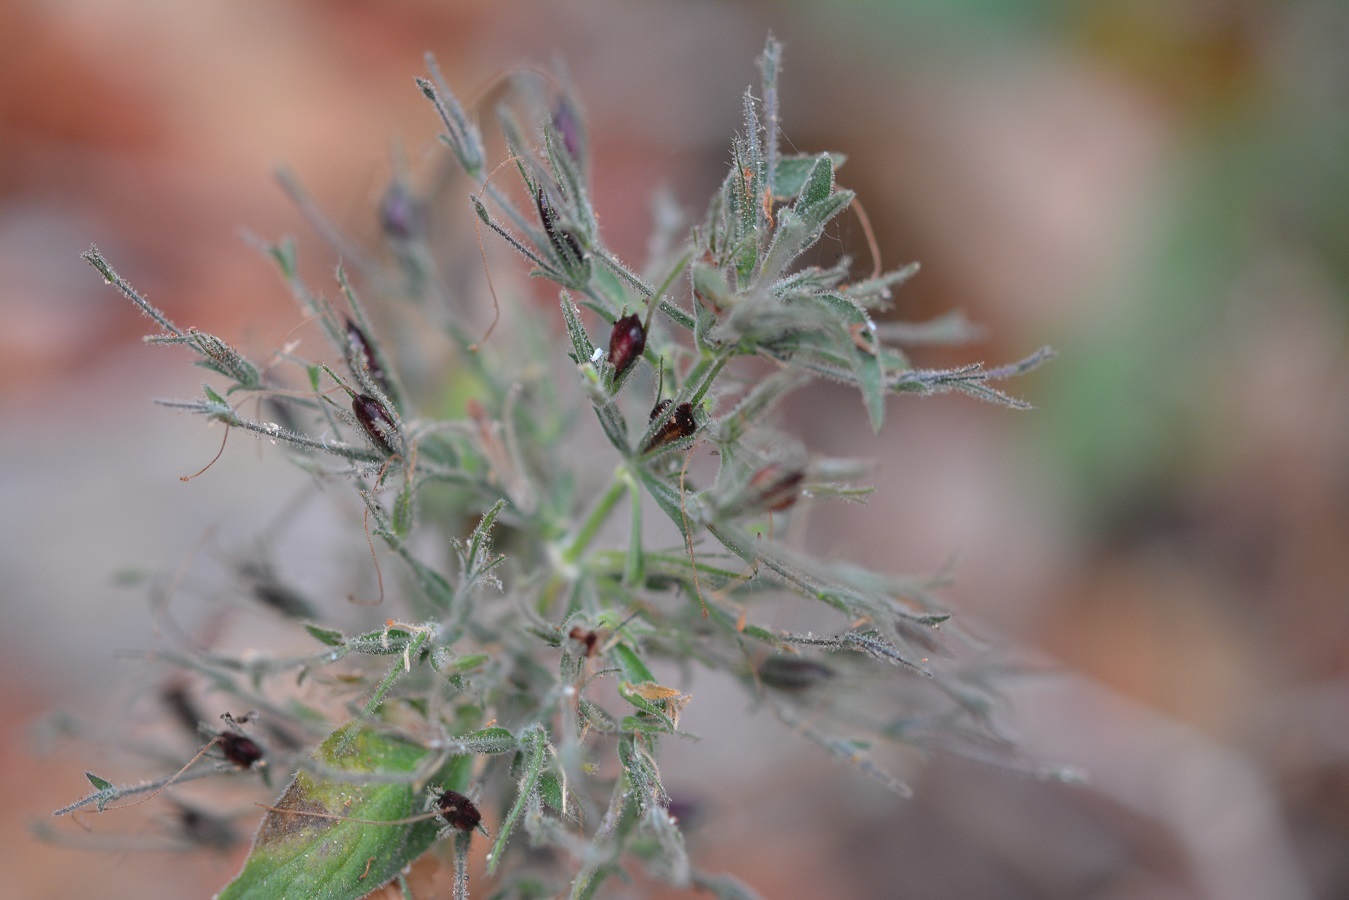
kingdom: Plantae
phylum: Tracheophyta
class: Magnoliopsida
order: Lamiales
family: Acanthaceae
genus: Ruellia
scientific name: Ruellia inundata
